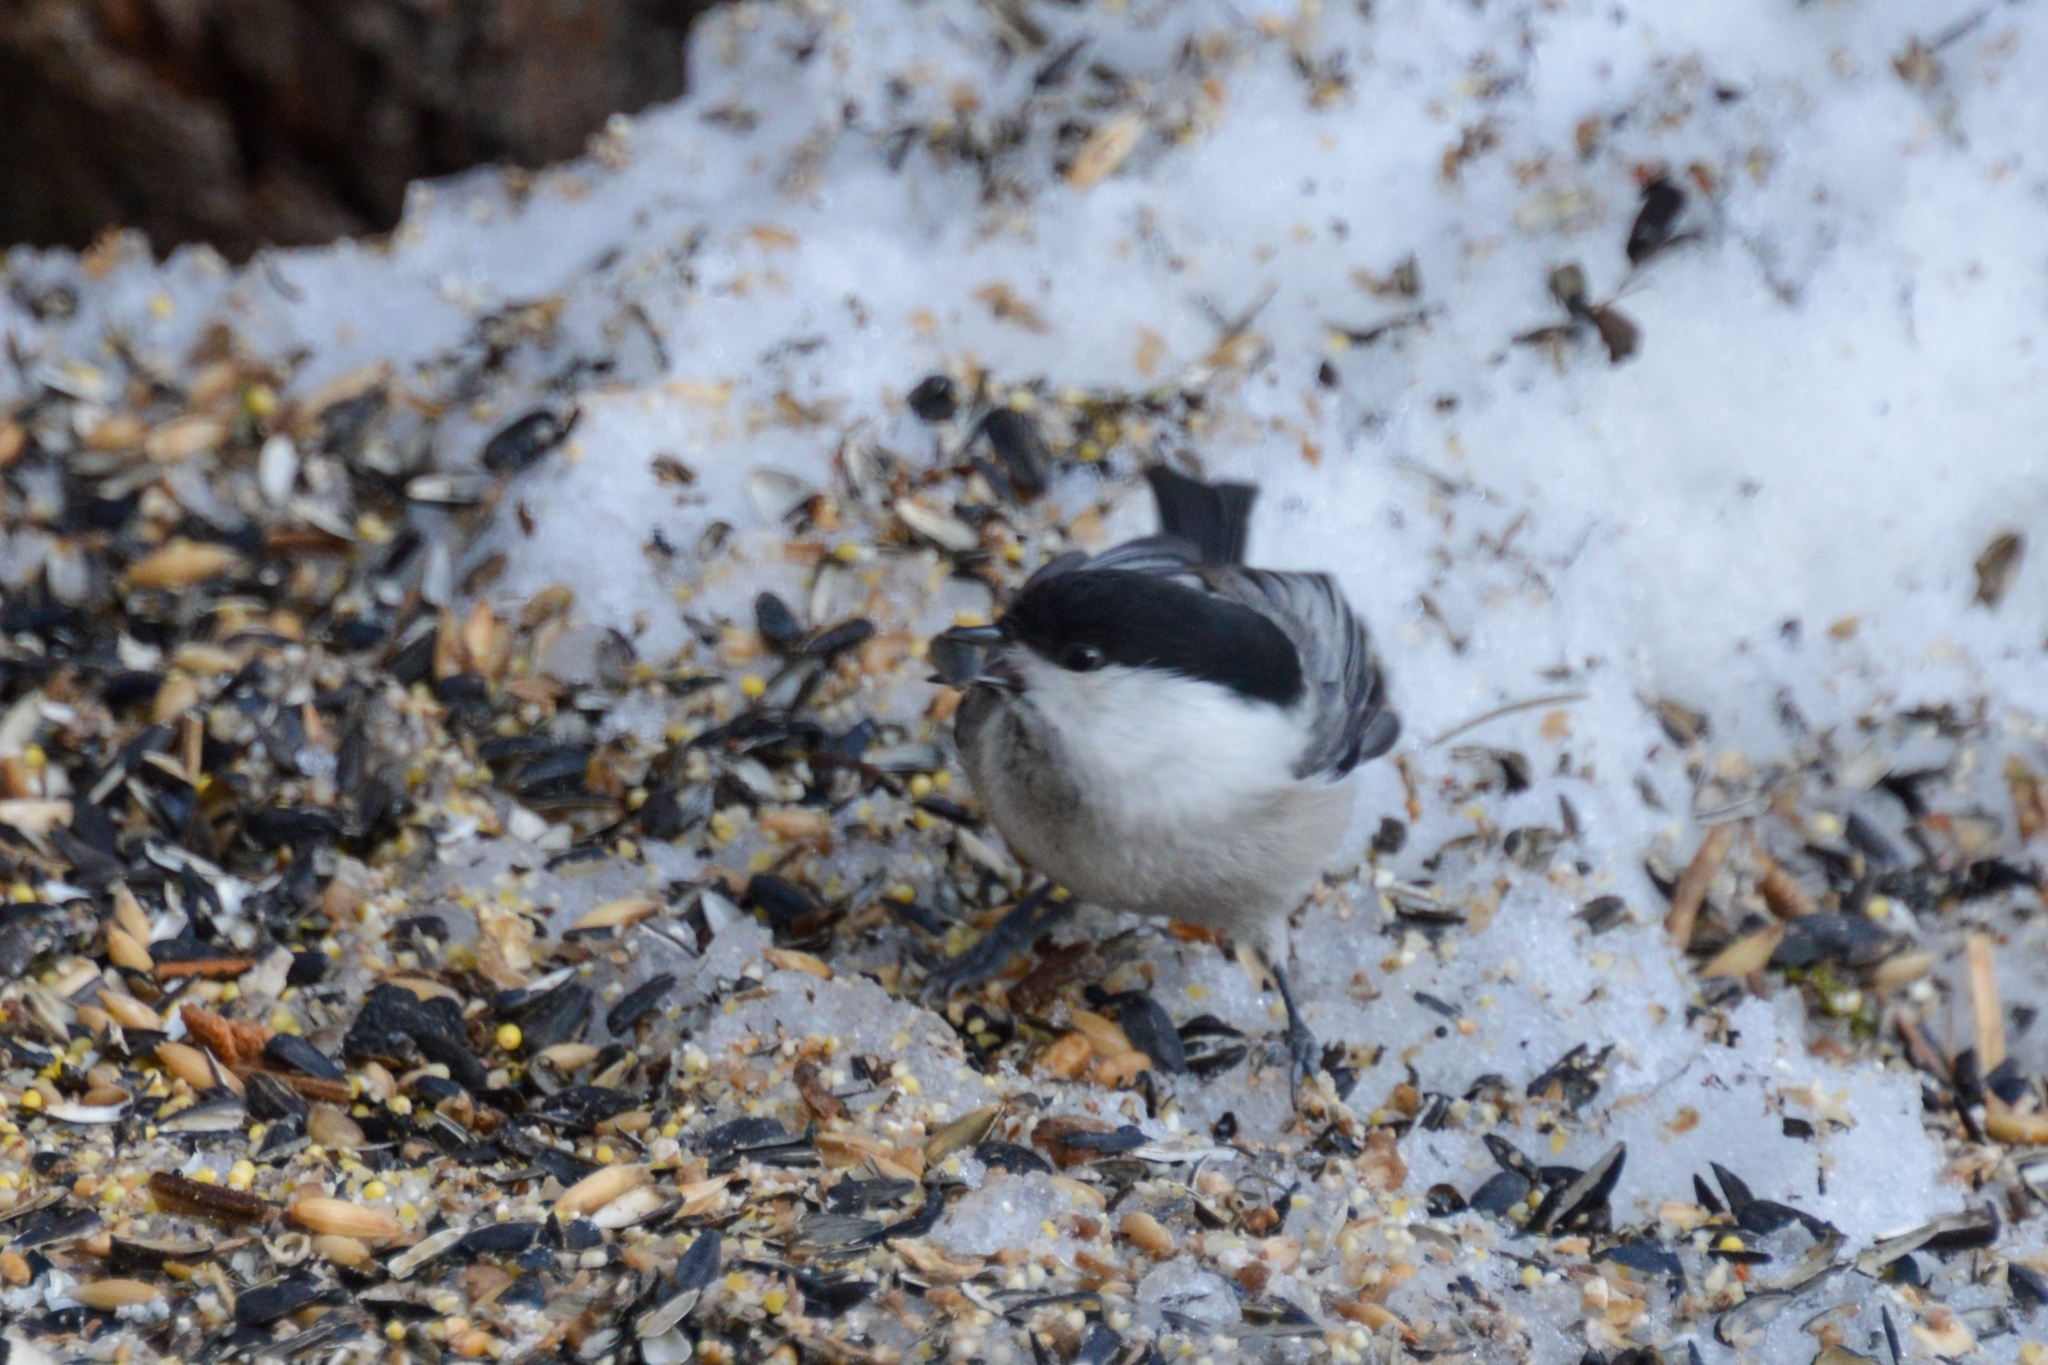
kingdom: Animalia
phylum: Chordata
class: Aves
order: Passeriformes
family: Paridae
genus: Poecile
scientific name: Poecile montanus
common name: Willow tit
